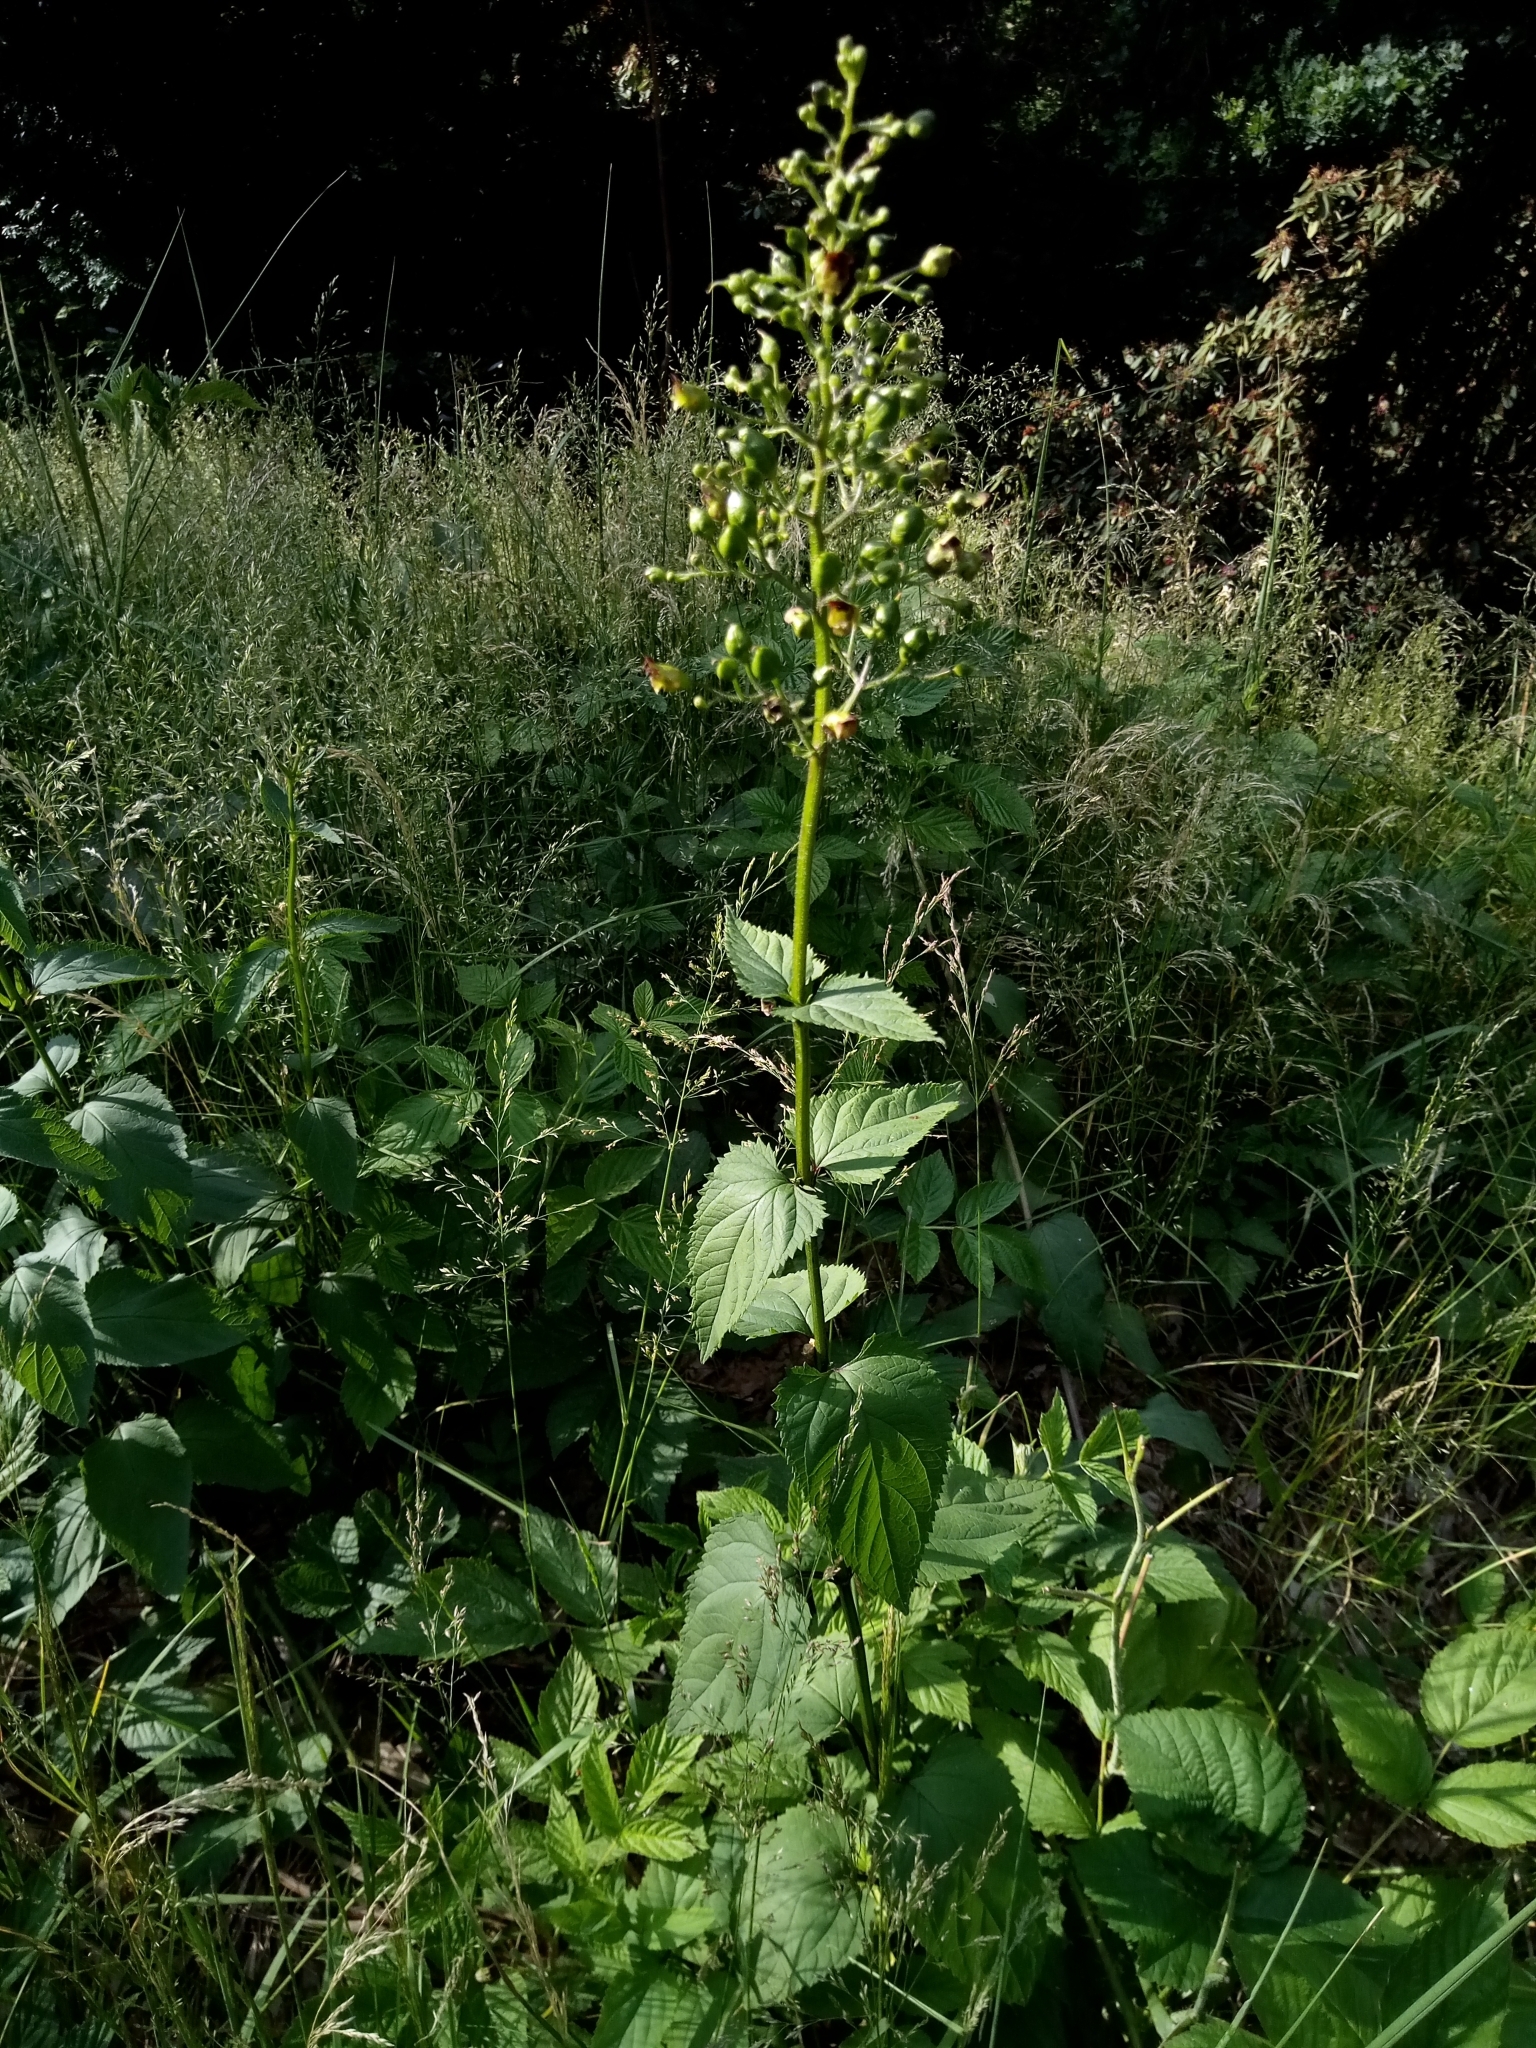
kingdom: Plantae
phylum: Tracheophyta
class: Magnoliopsida
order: Lamiales
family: Scrophulariaceae
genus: Scrophularia
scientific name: Scrophularia nodosa
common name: Common figwort
